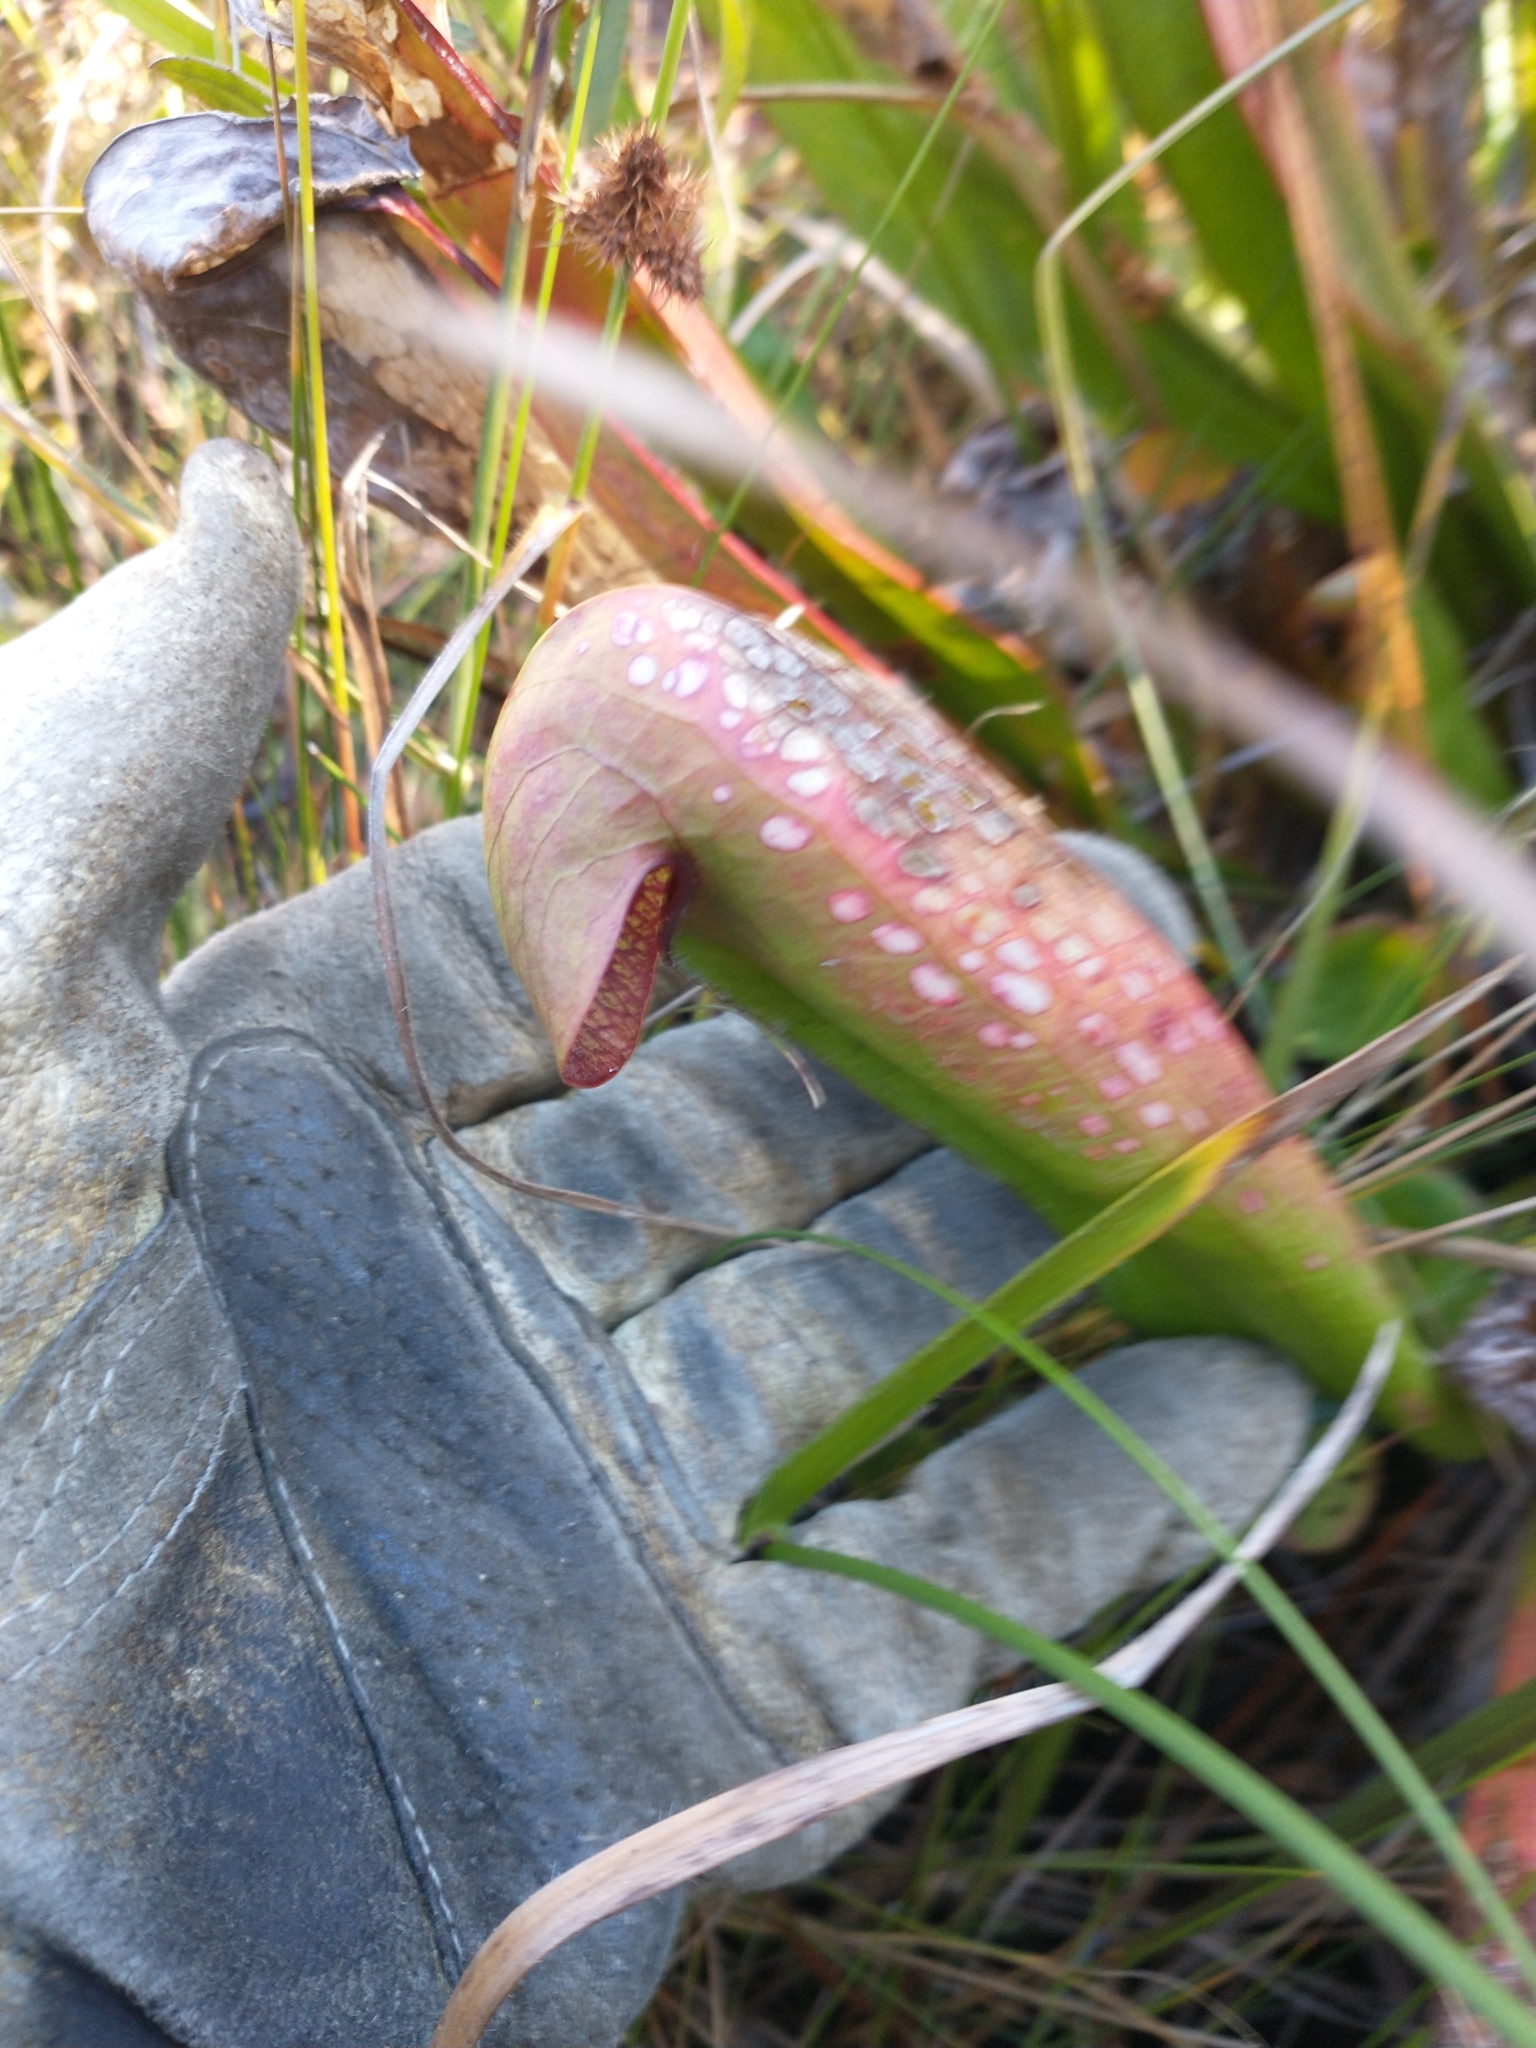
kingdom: Plantae
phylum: Tracheophyta
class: Magnoliopsida
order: Ericales
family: Sarraceniaceae
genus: Sarracenia
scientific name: Sarracenia minor
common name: Rainhat-trumpet
